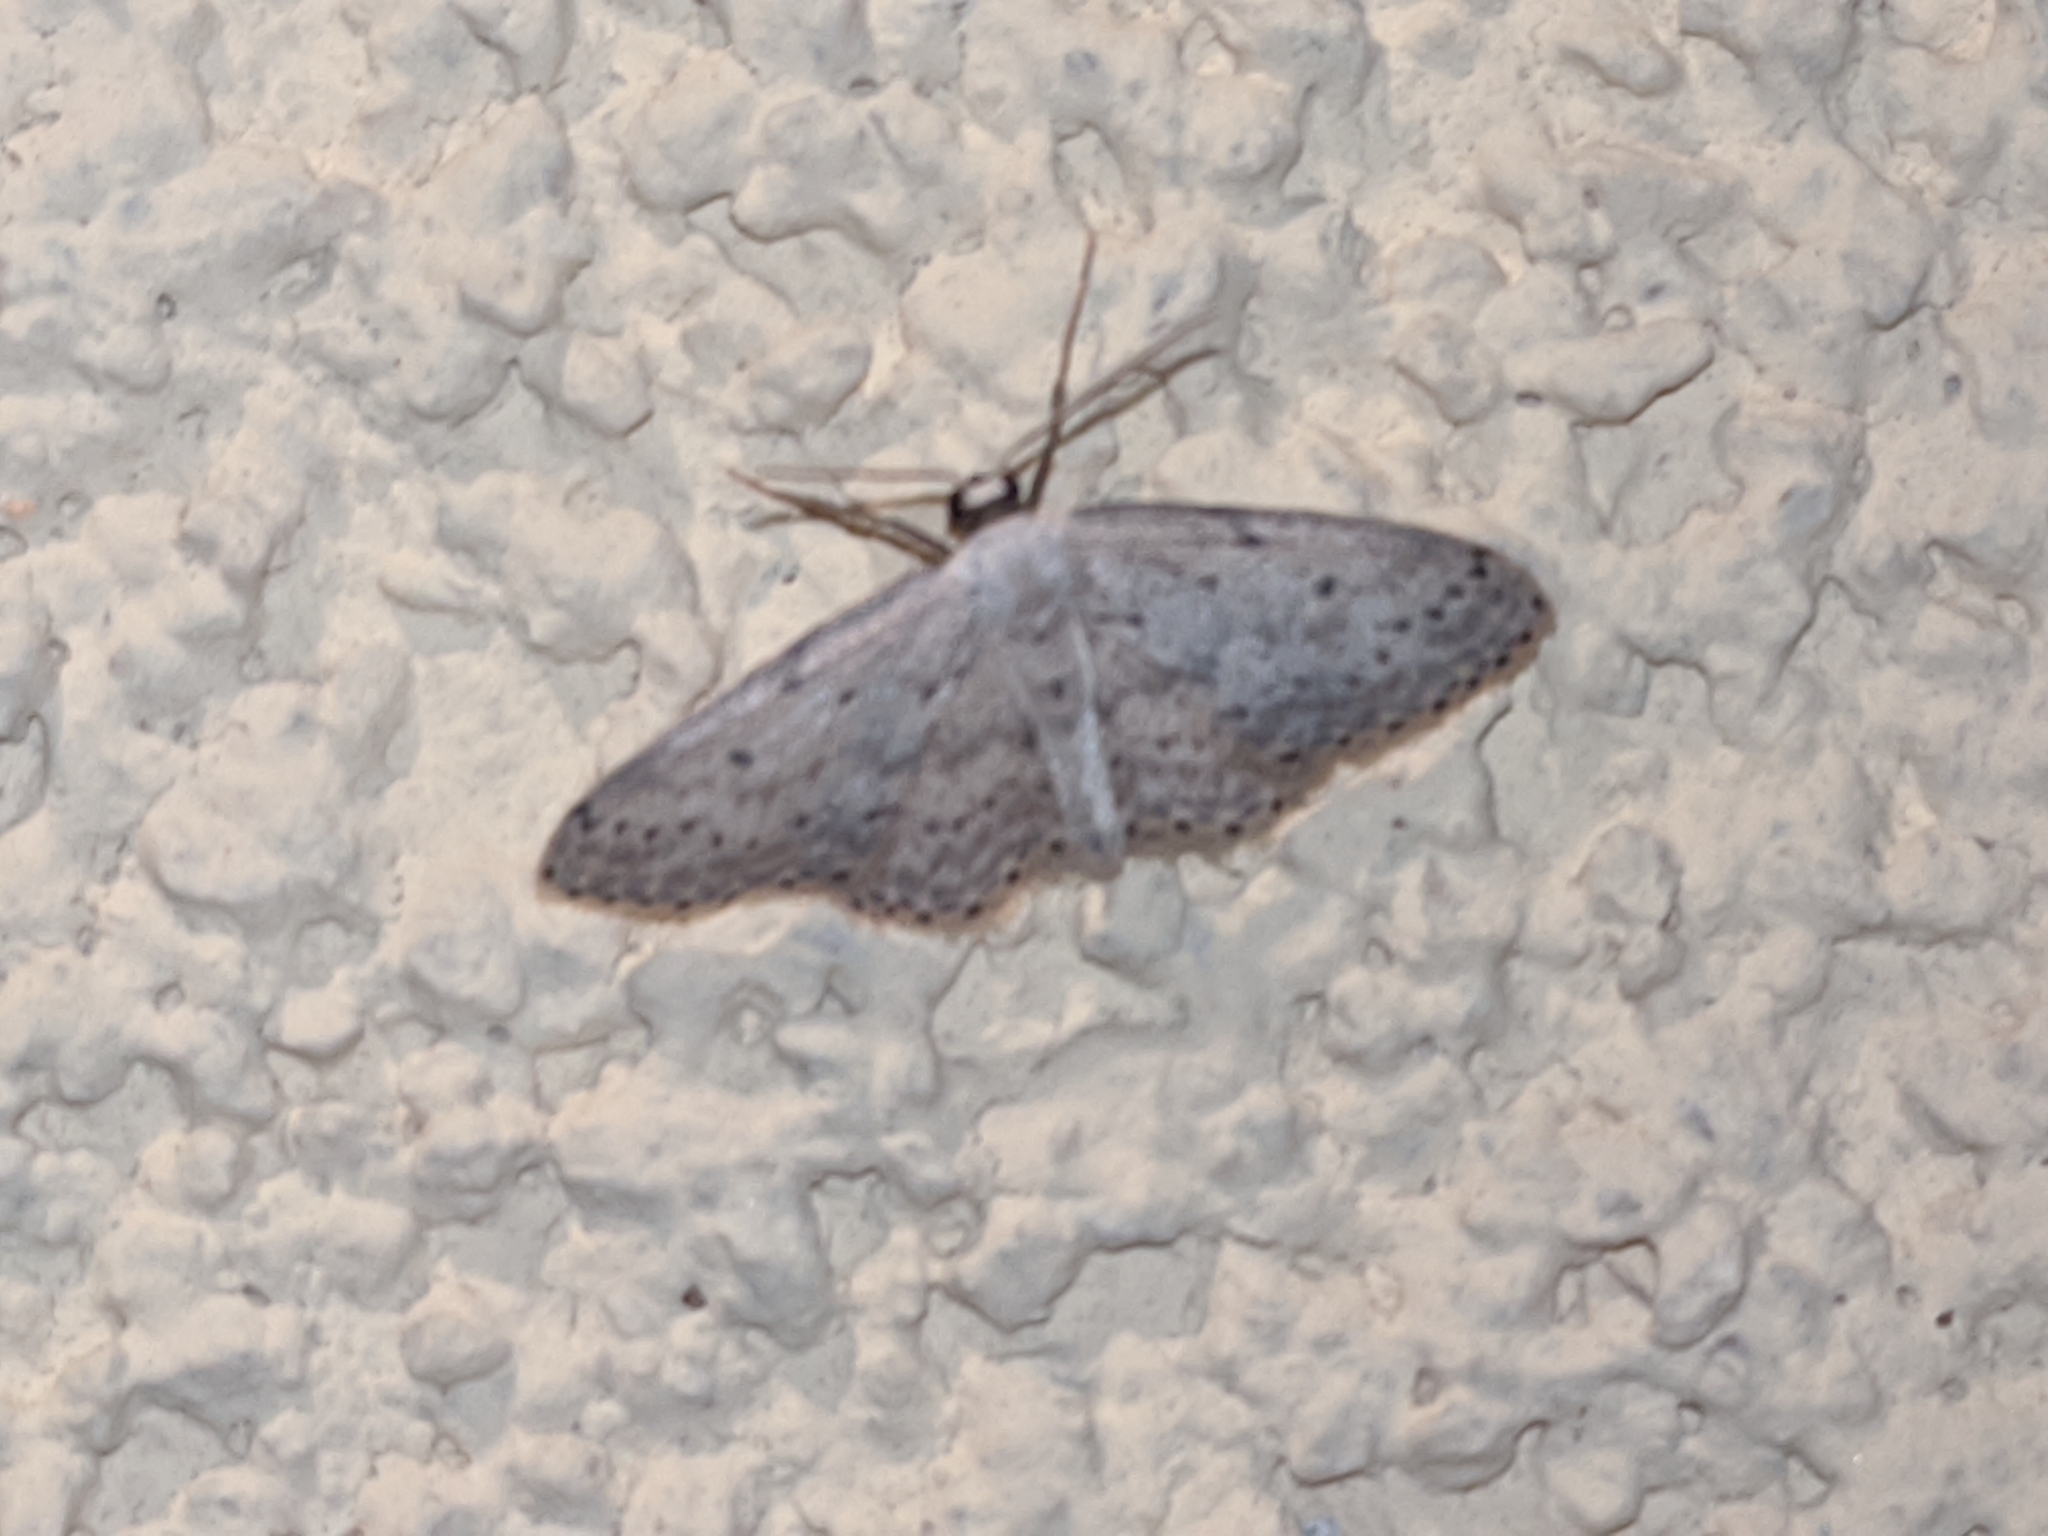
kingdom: Animalia
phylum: Arthropoda
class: Insecta
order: Lepidoptera
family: Geometridae
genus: Idaea
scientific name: Idaea seriata
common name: Small dusty wave
